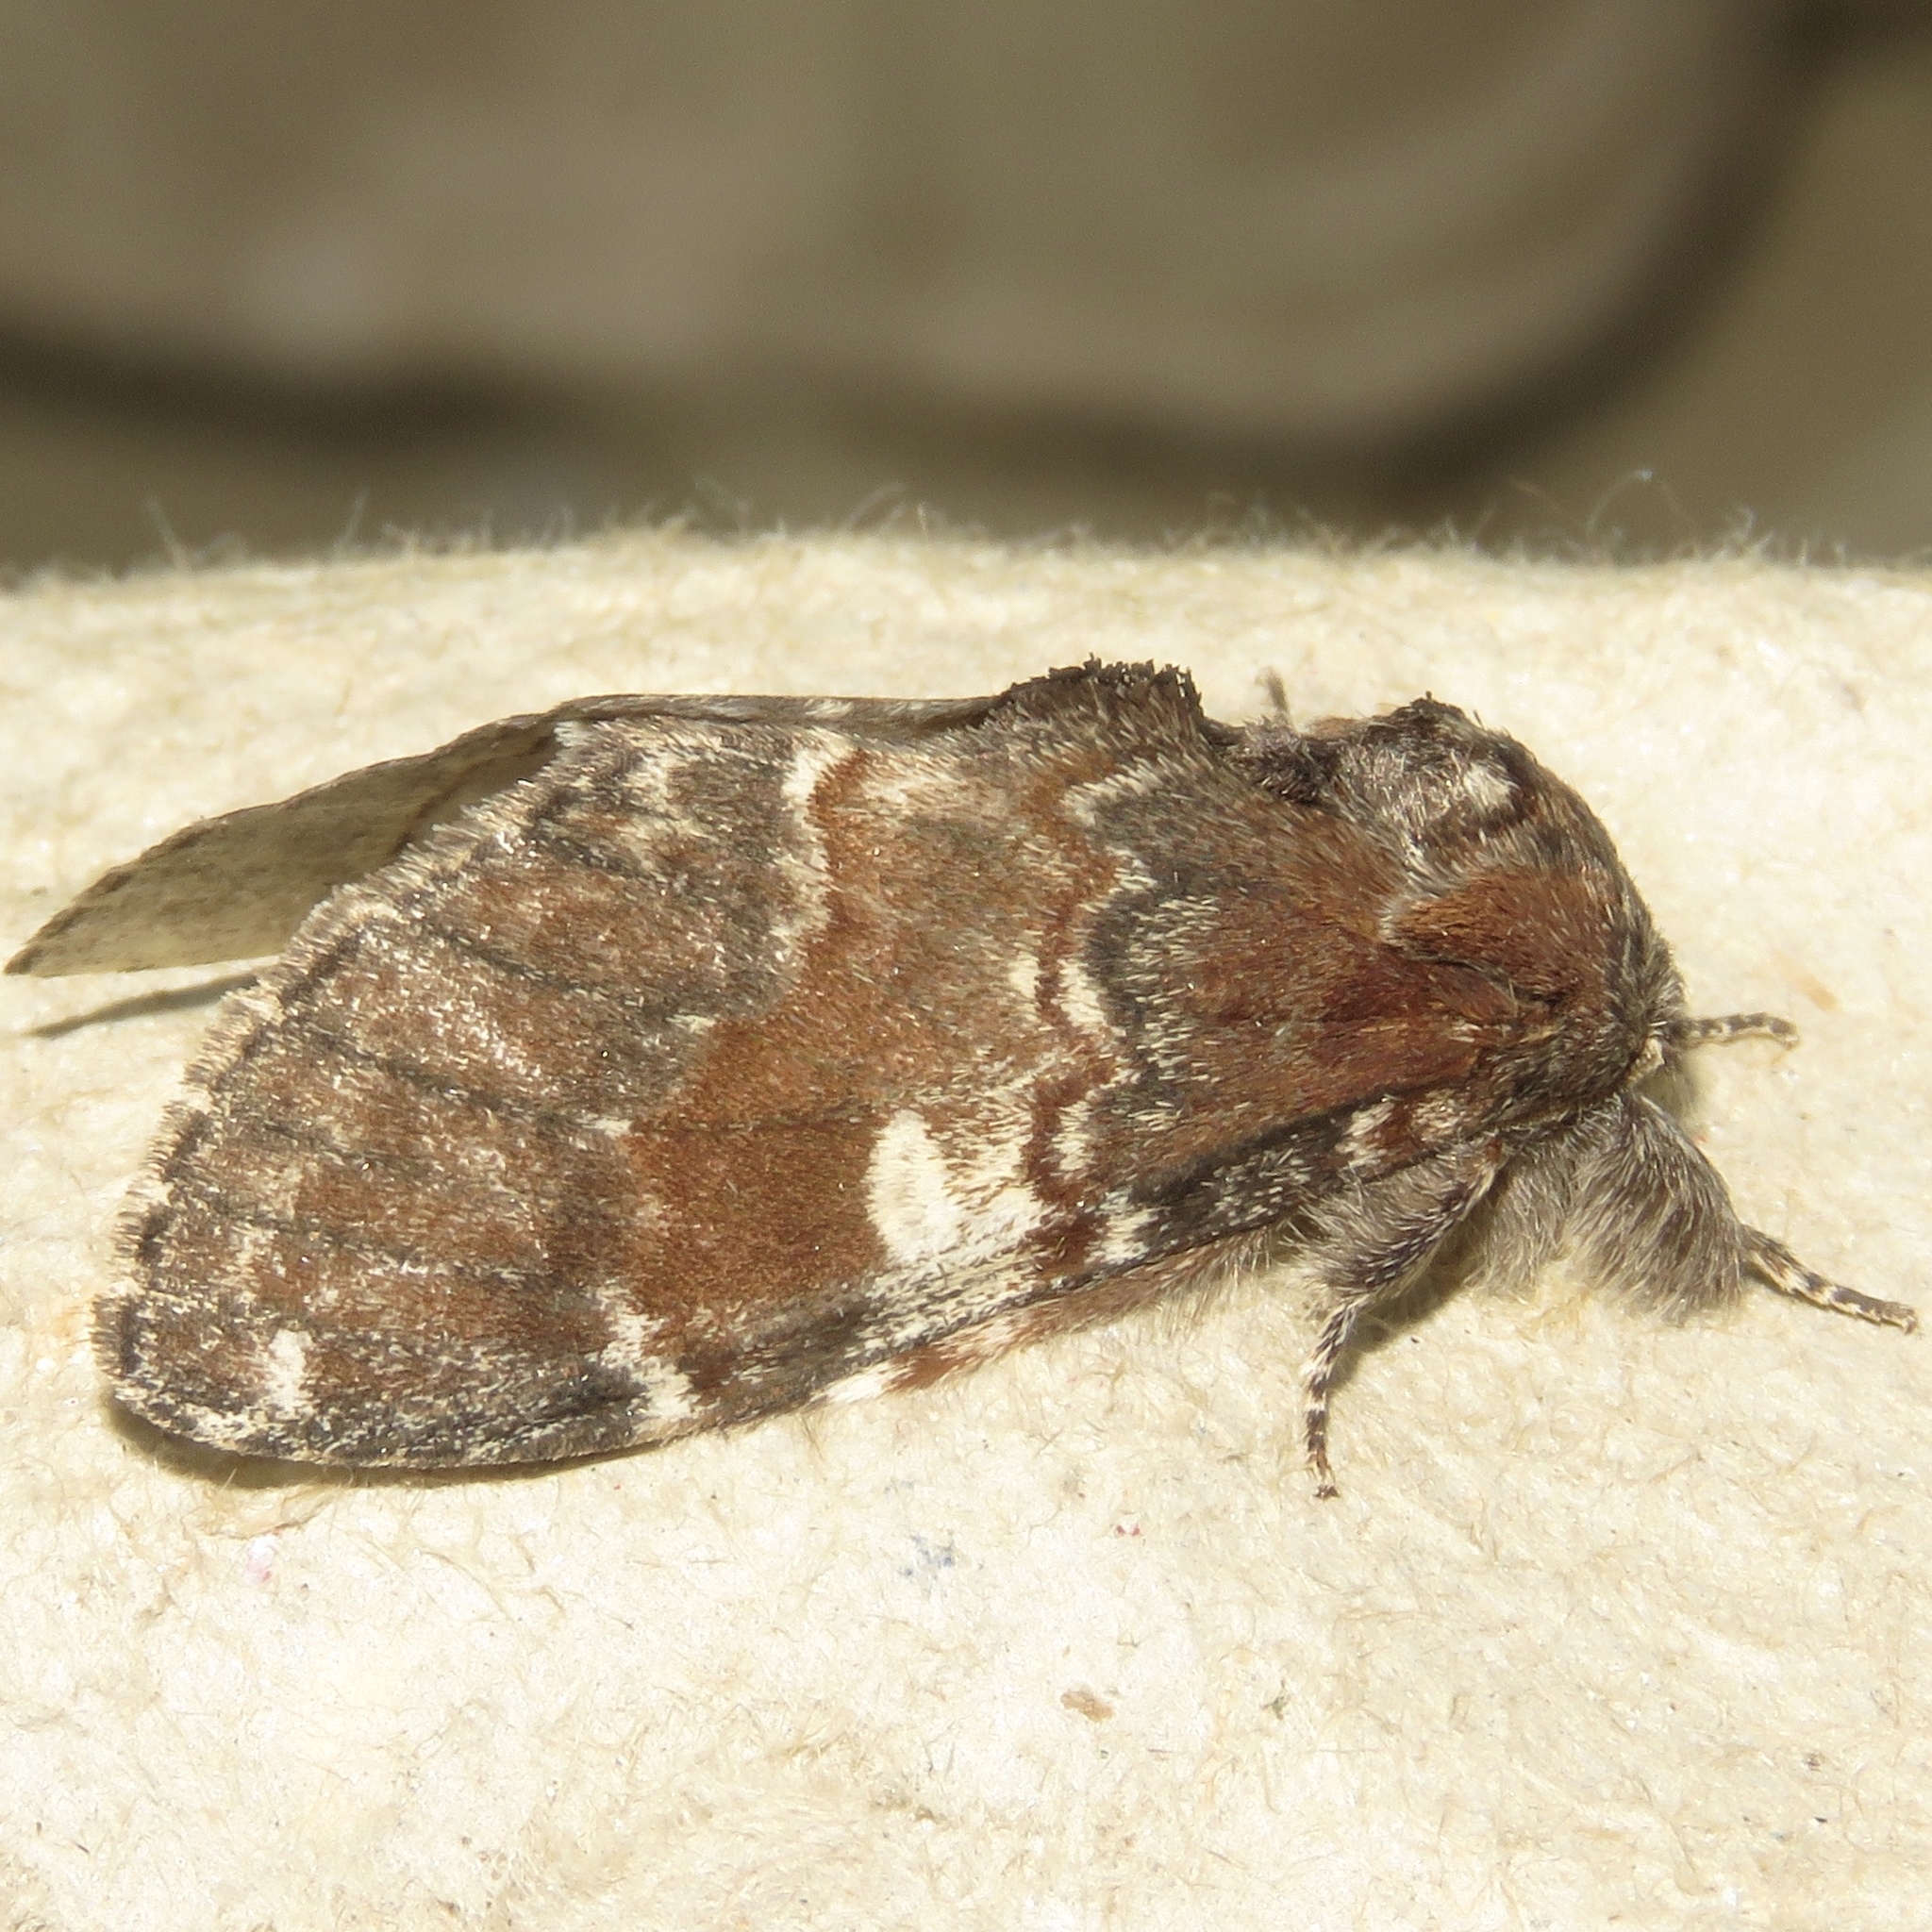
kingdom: Animalia
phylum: Arthropoda
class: Insecta
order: Lepidoptera
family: Notodontidae
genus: Peridea
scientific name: Peridea ferruginea
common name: Chocolate prominent
